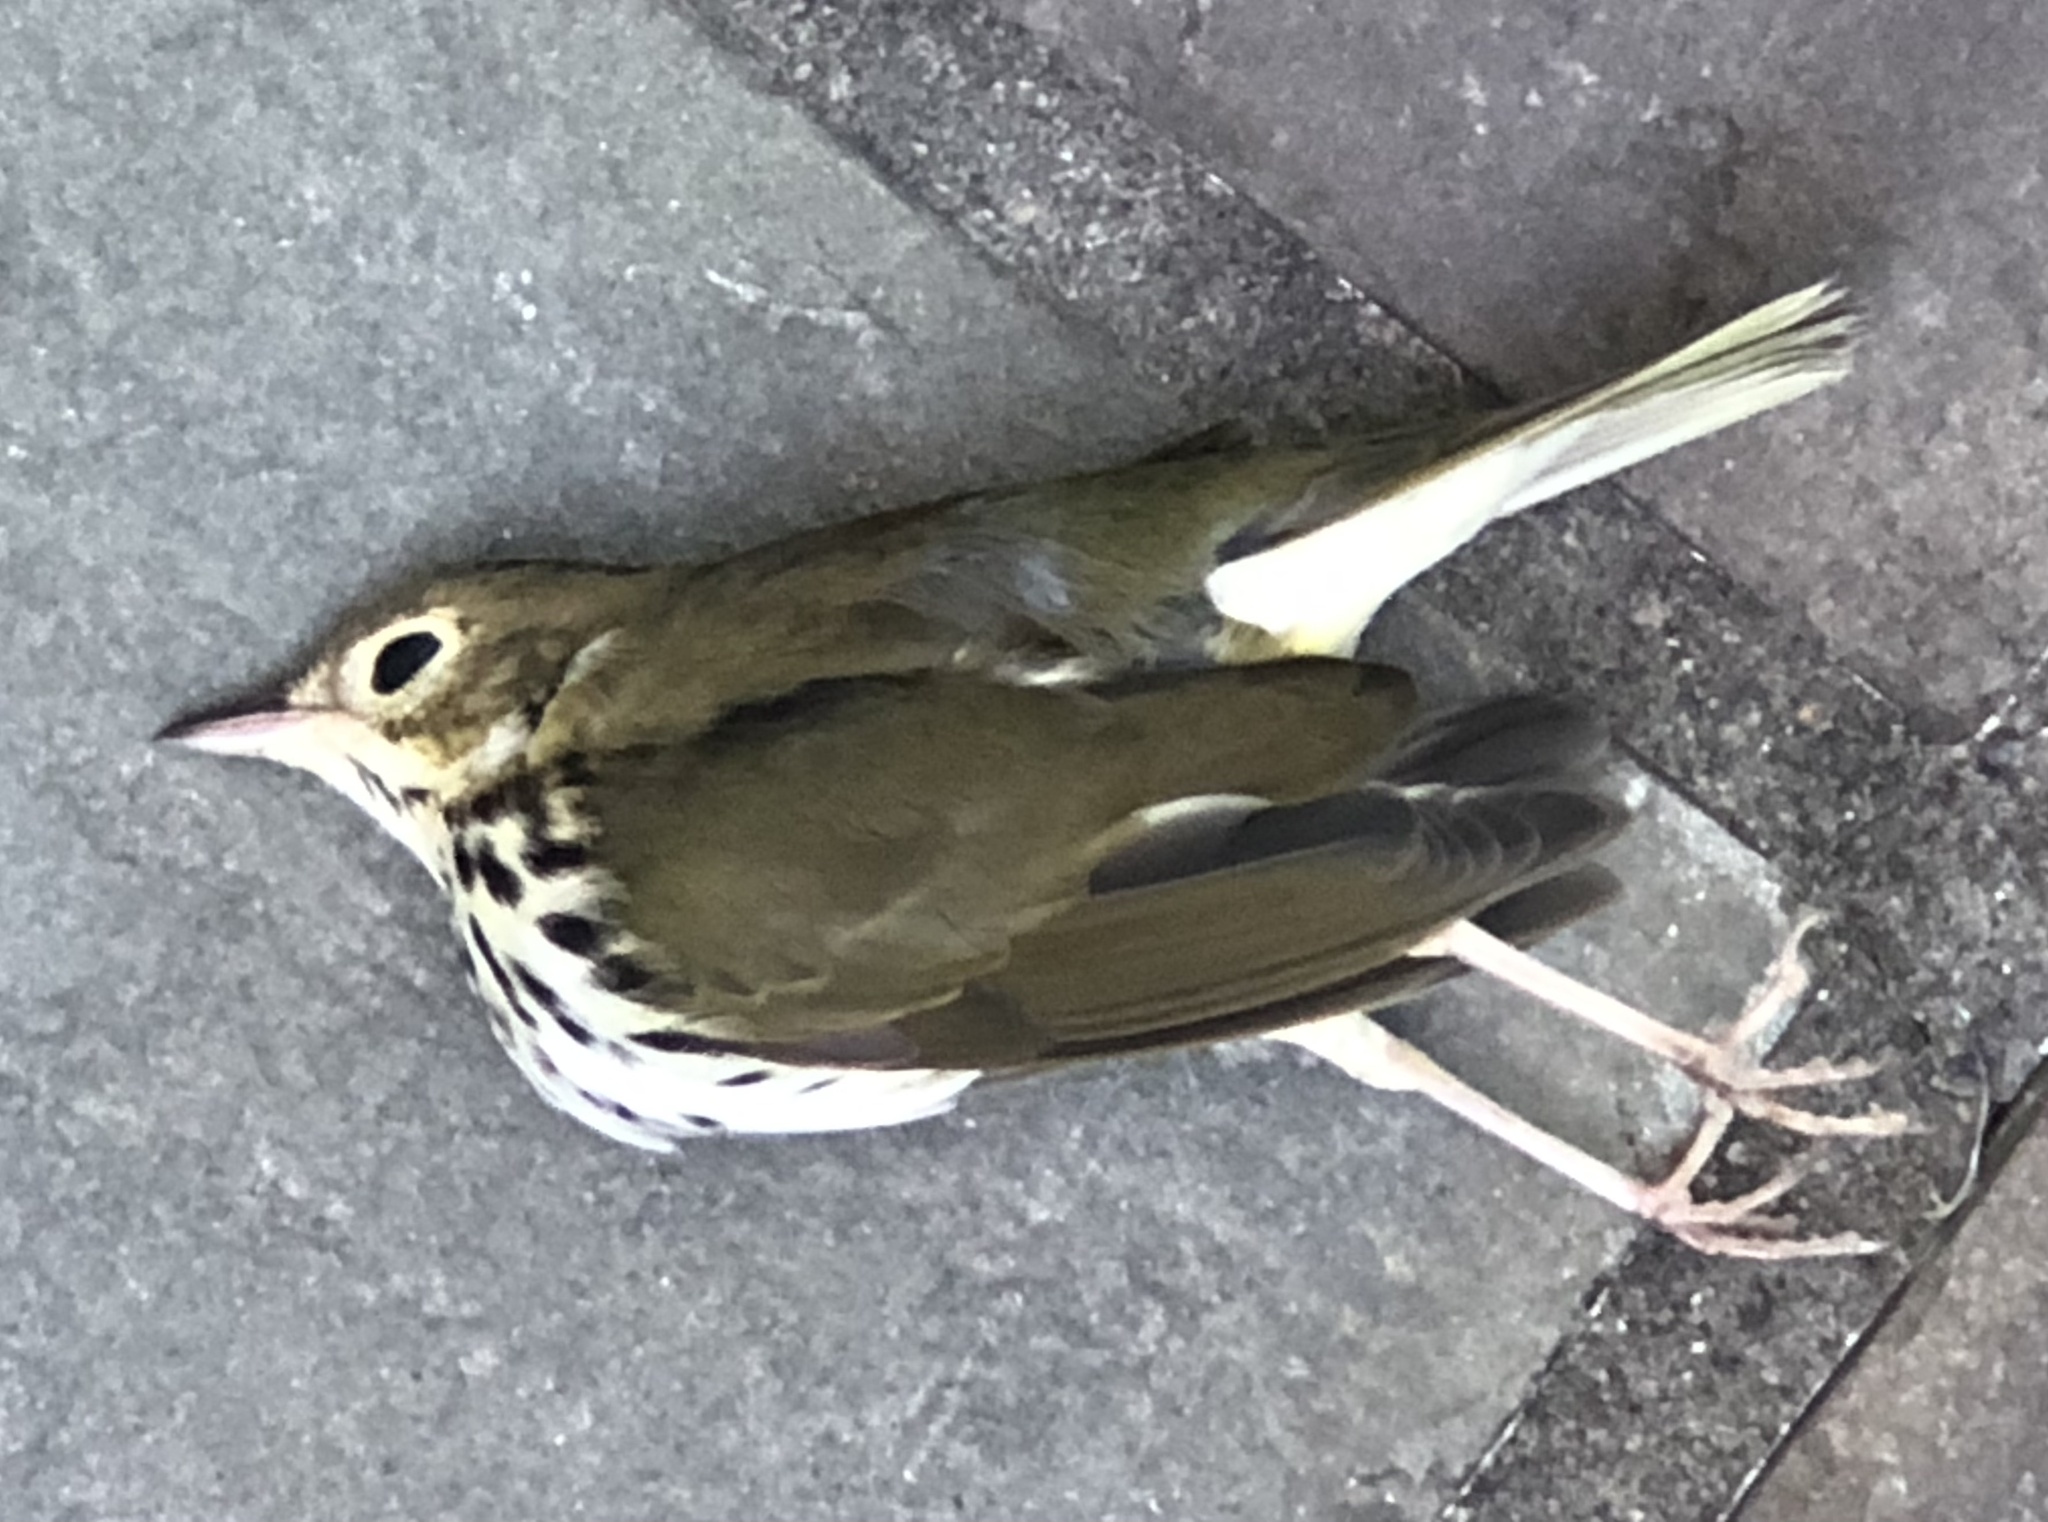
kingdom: Animalia
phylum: Chordata
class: Aves
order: Passeriformes
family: Parulidae
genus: Seiurus
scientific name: Seiurus aurocapilla
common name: Ovenbird
